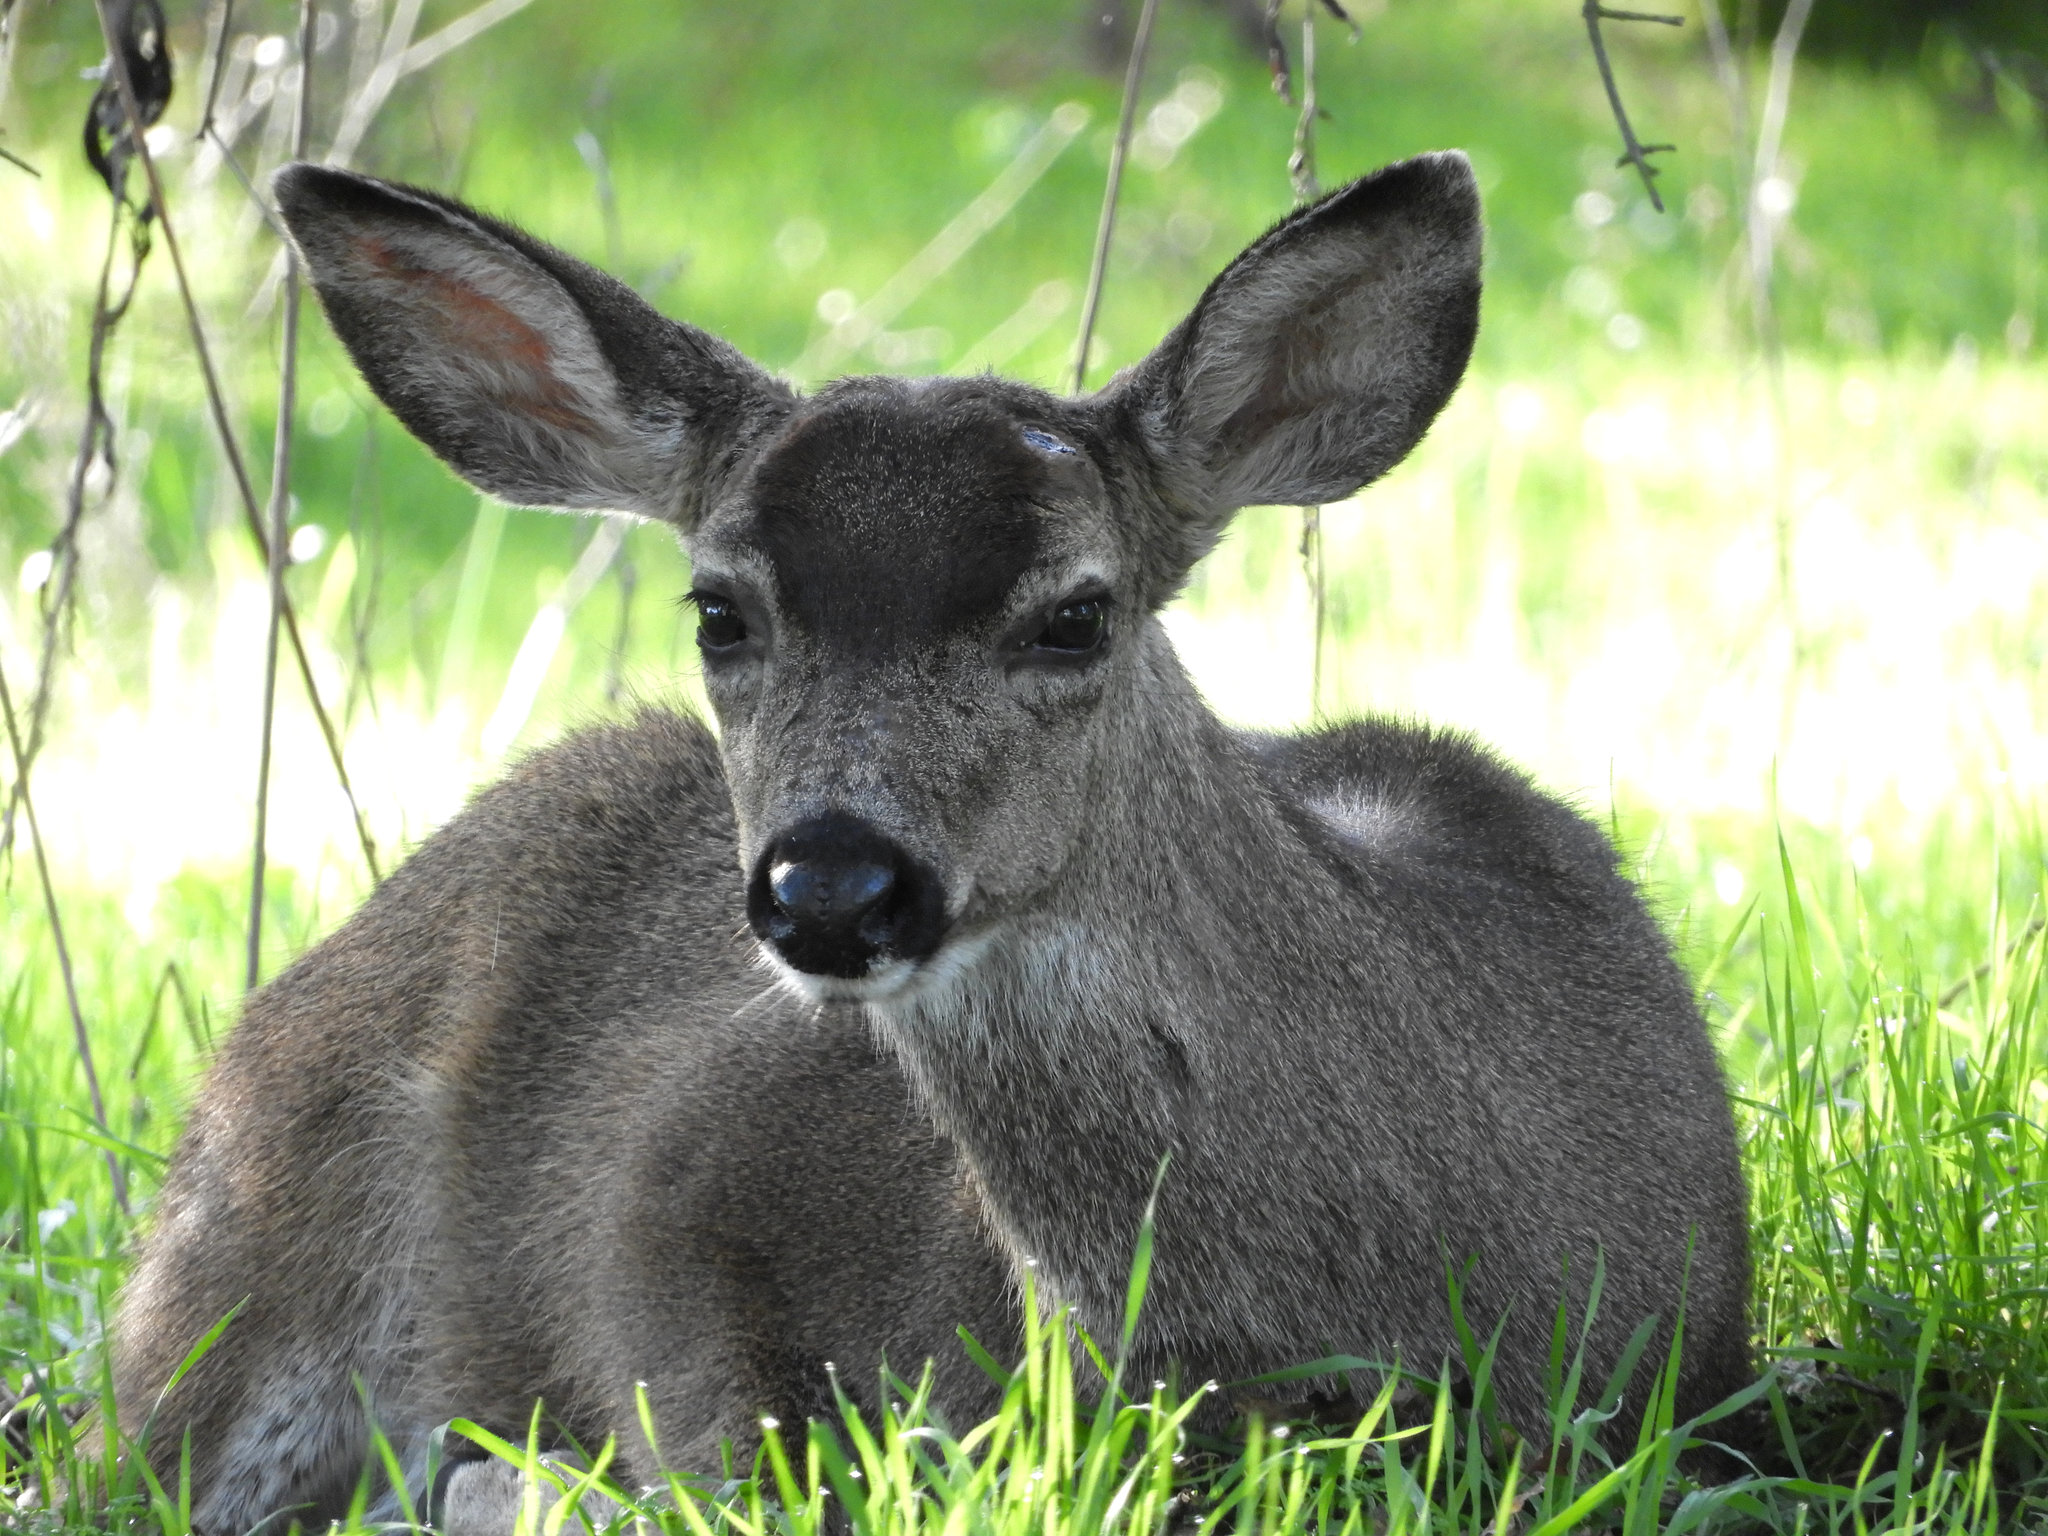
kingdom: Animalia
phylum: Chordata
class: Mammalia
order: Artiodactyla
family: Cervidae
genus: Odocoileus
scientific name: Odocoileus hemionus
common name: Mule deer
